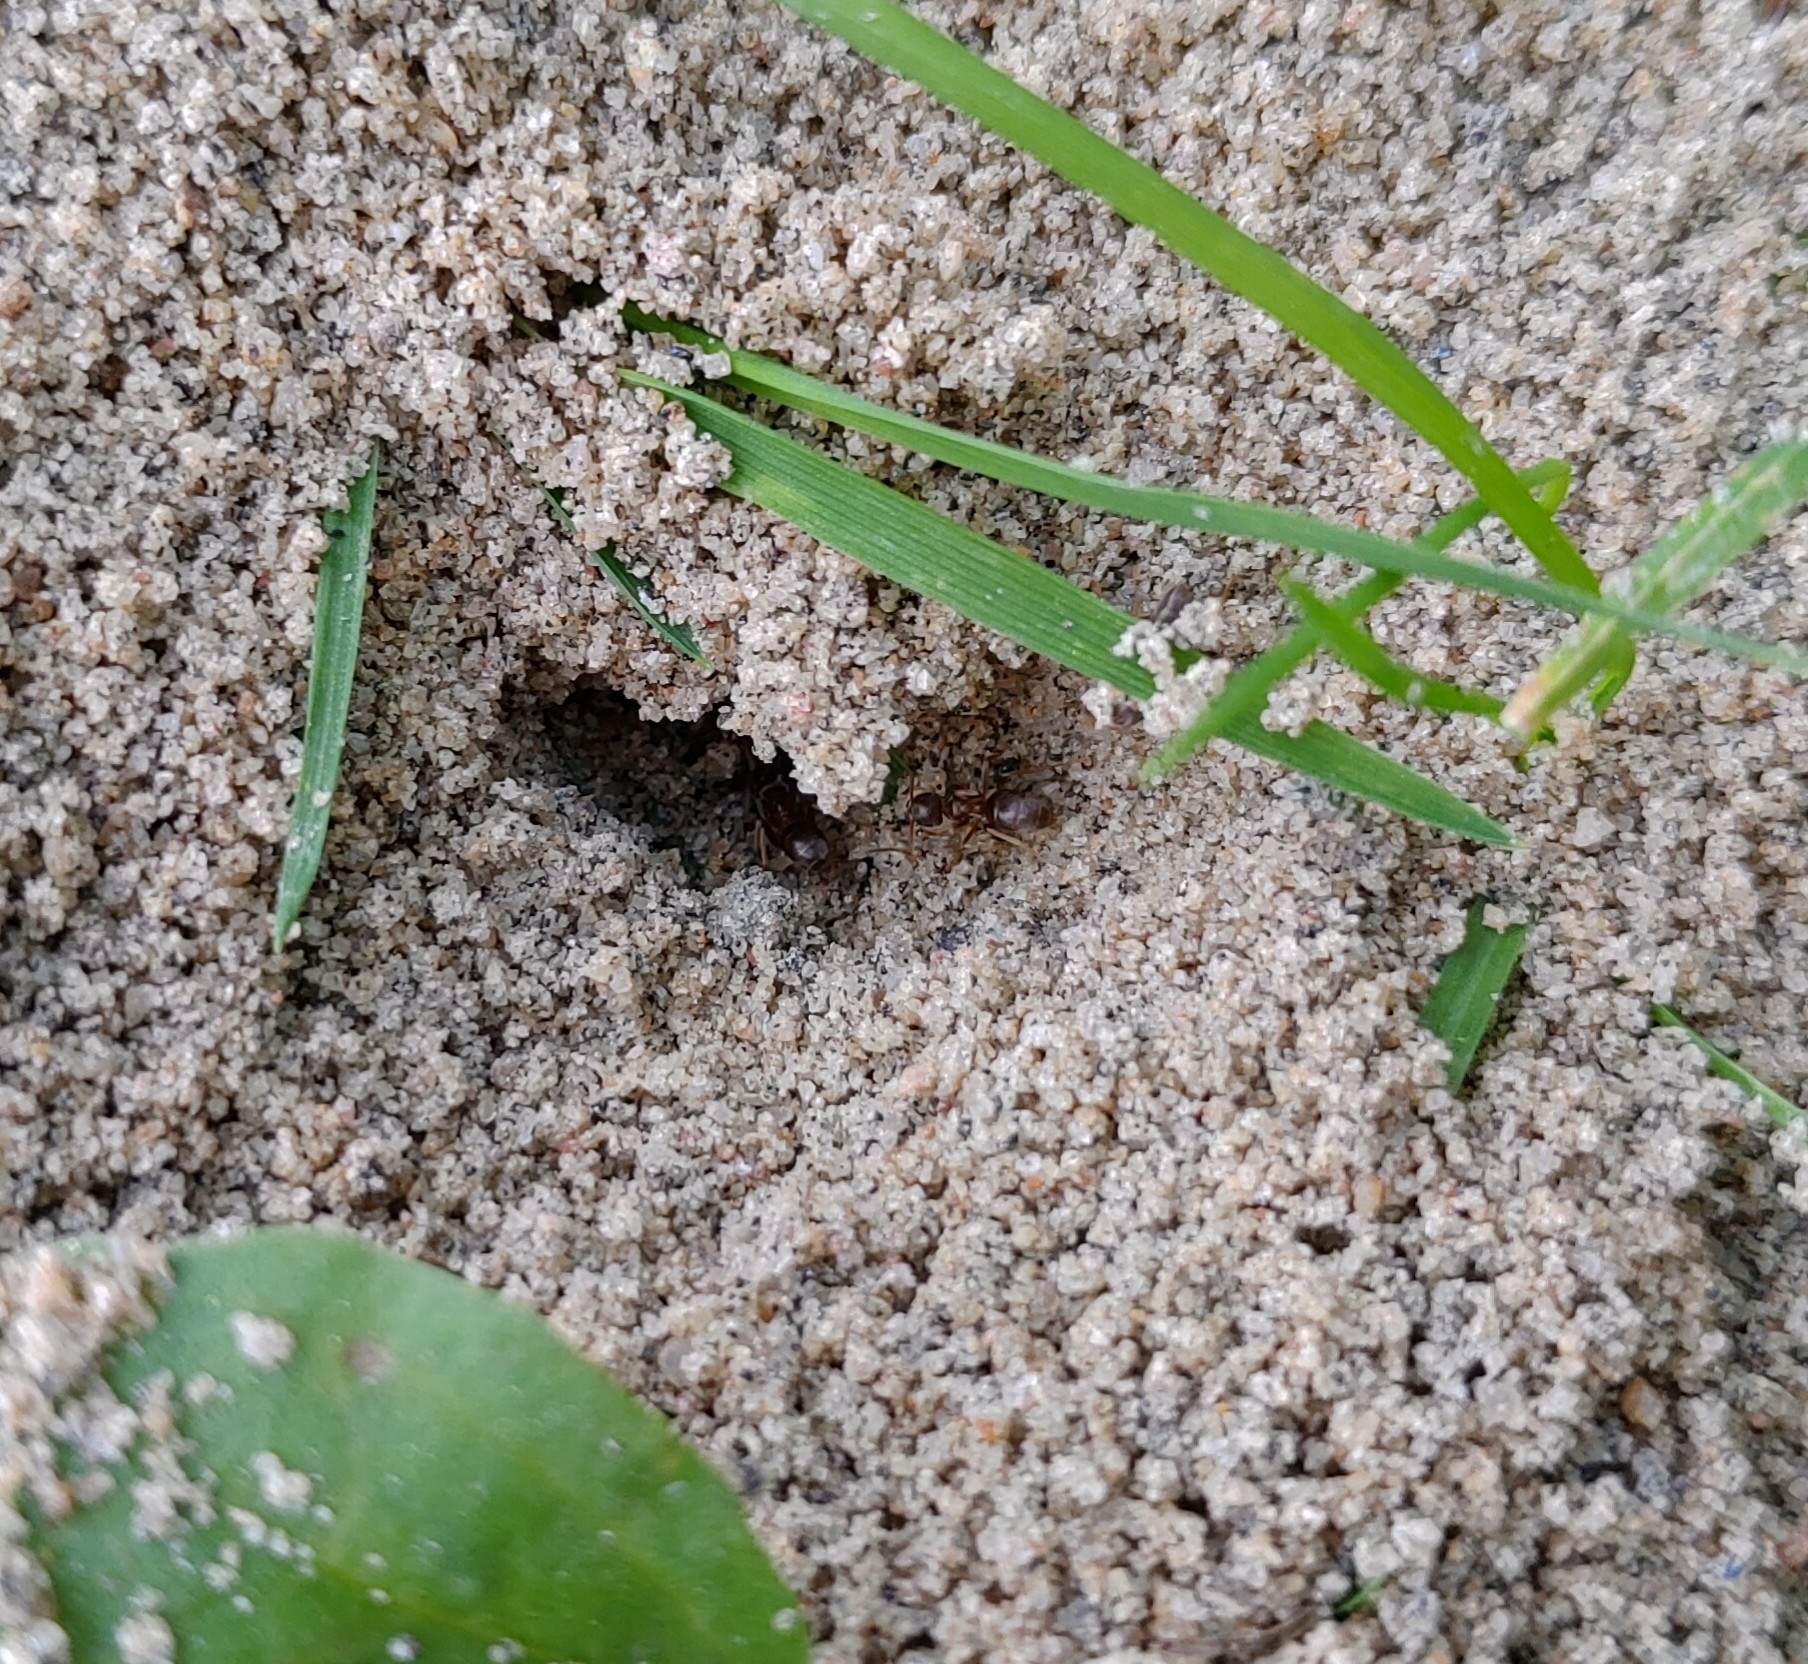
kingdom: Animalia
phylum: Arthropoda
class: Insecta
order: Hymenoptera
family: Formicidae
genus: Lasius
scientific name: Lasius neoniger
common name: Turfgrass ant
